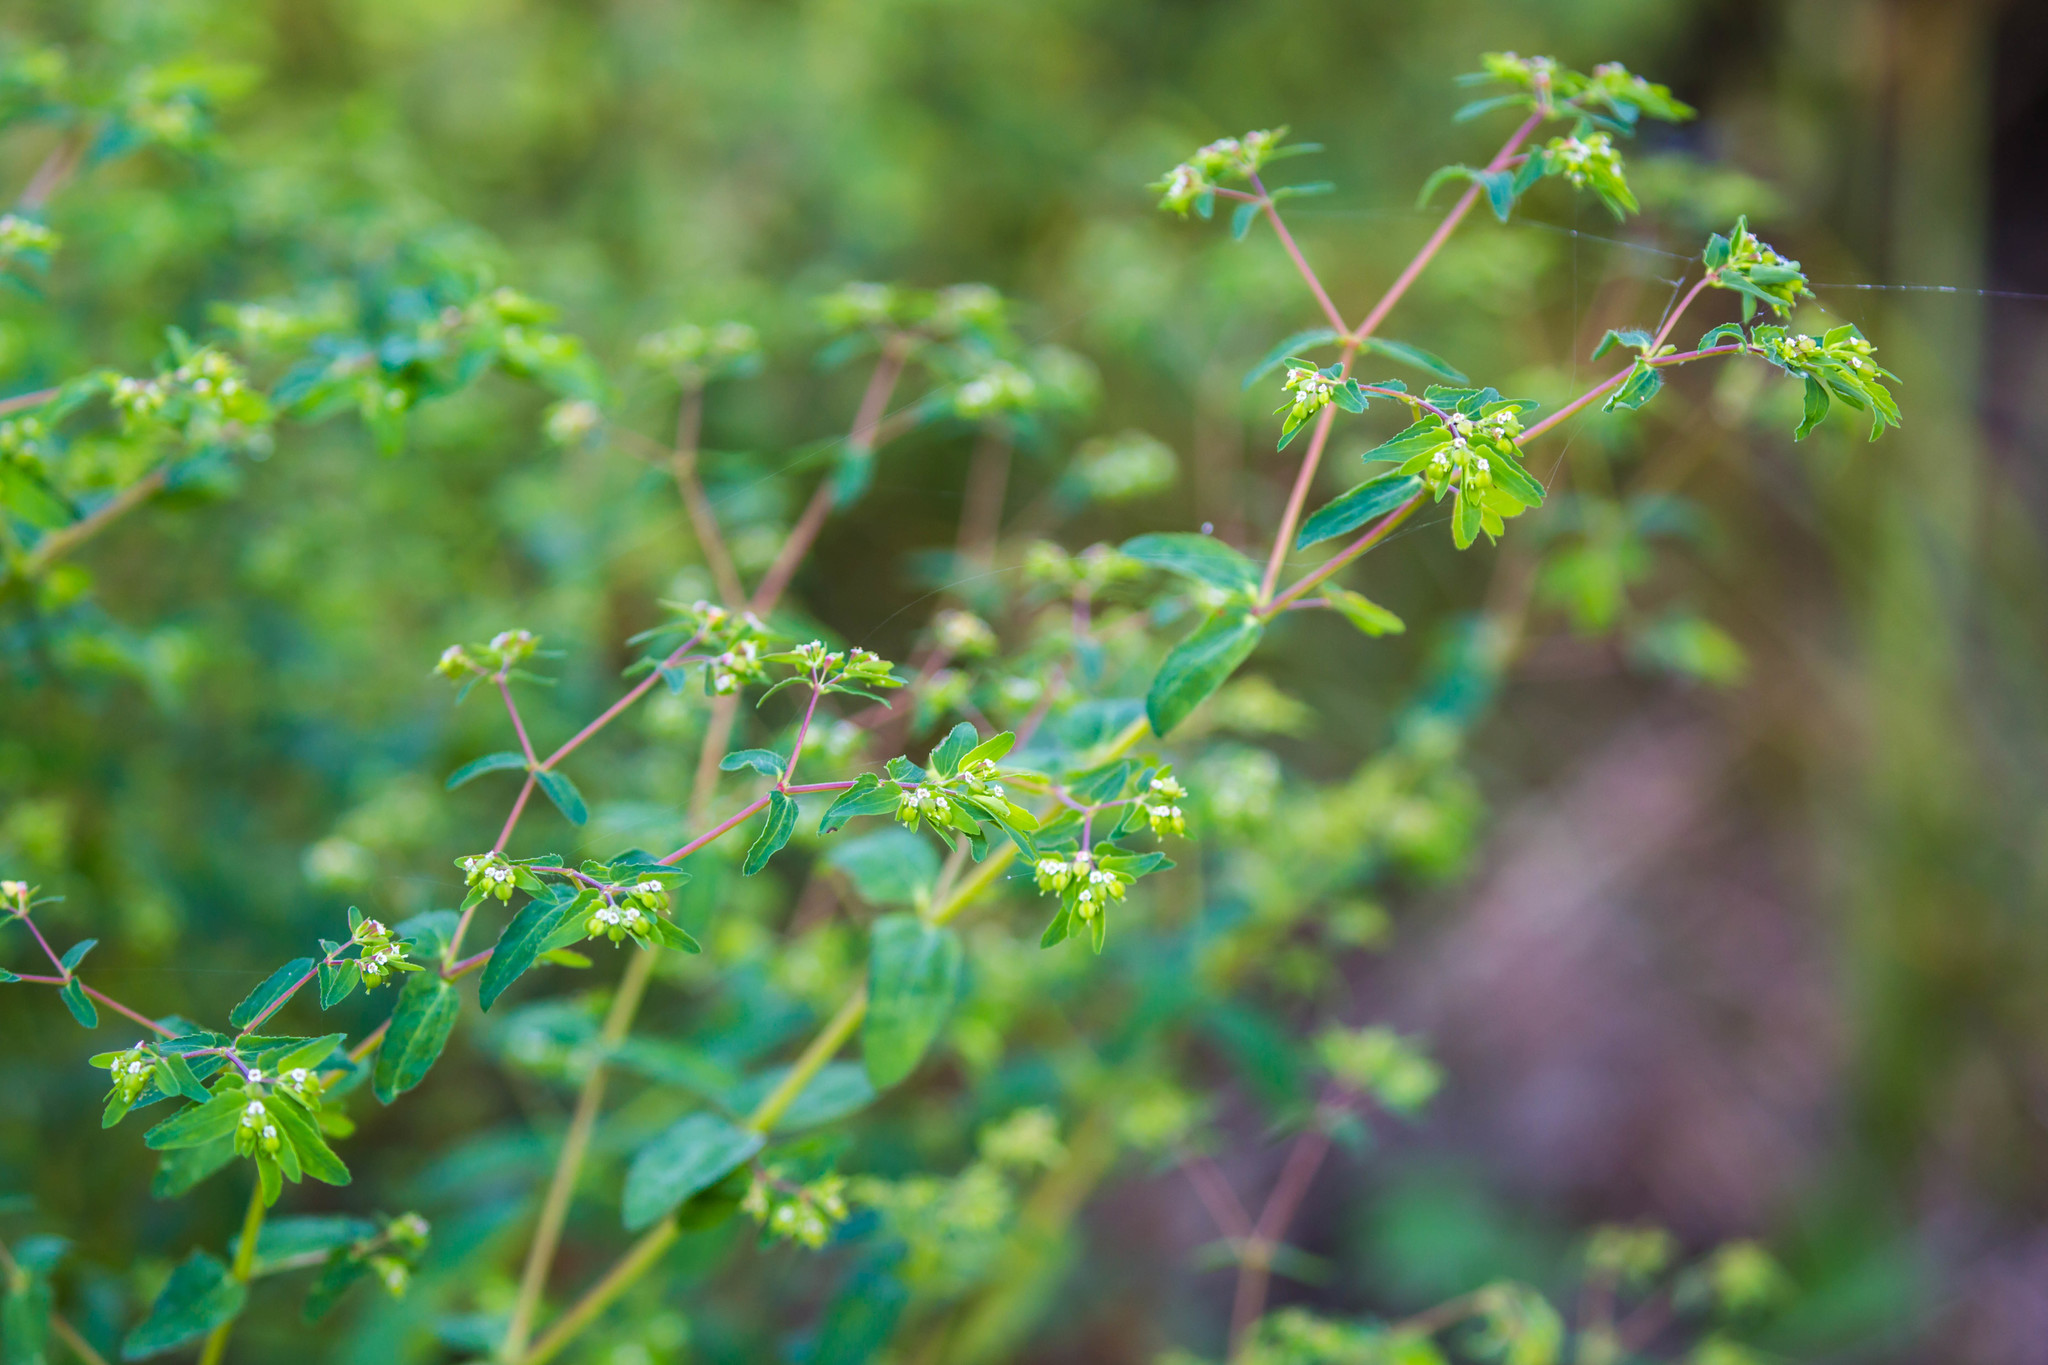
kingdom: Plantae
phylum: Tracheophyta
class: Magnoliopsida
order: Malpighiales
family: Euphorbiaceae
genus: Euphorbia
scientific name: Euphorbia nutans
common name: Eyebane
